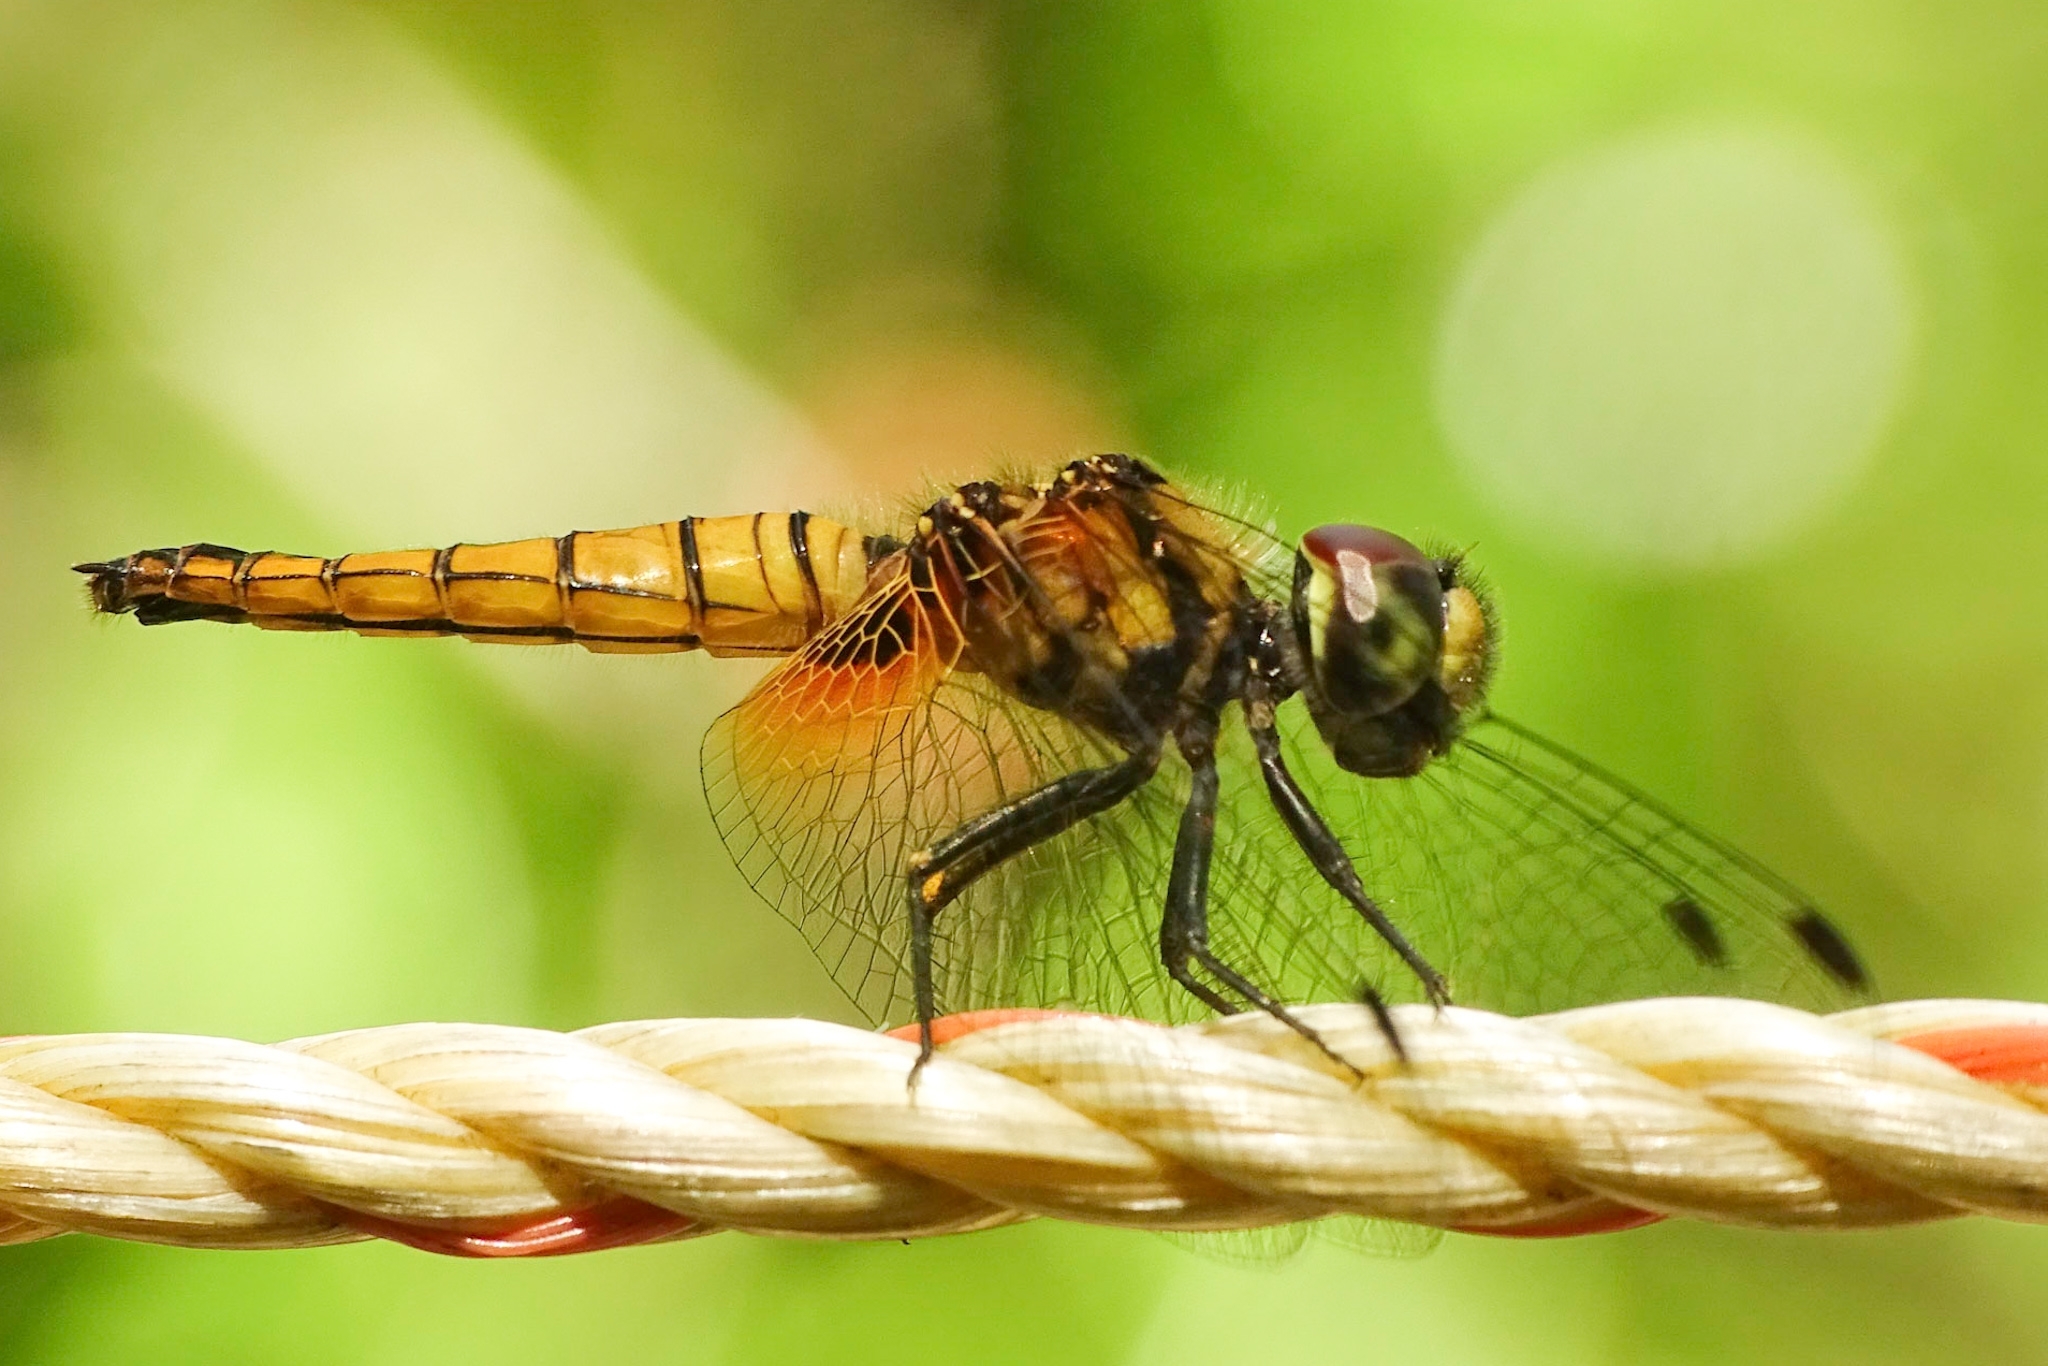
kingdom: Animalia
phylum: Arthropoda
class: Insecta
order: Odonata
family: Libellulidae
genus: Aethriamanta
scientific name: Aethriamanta brevipennis
